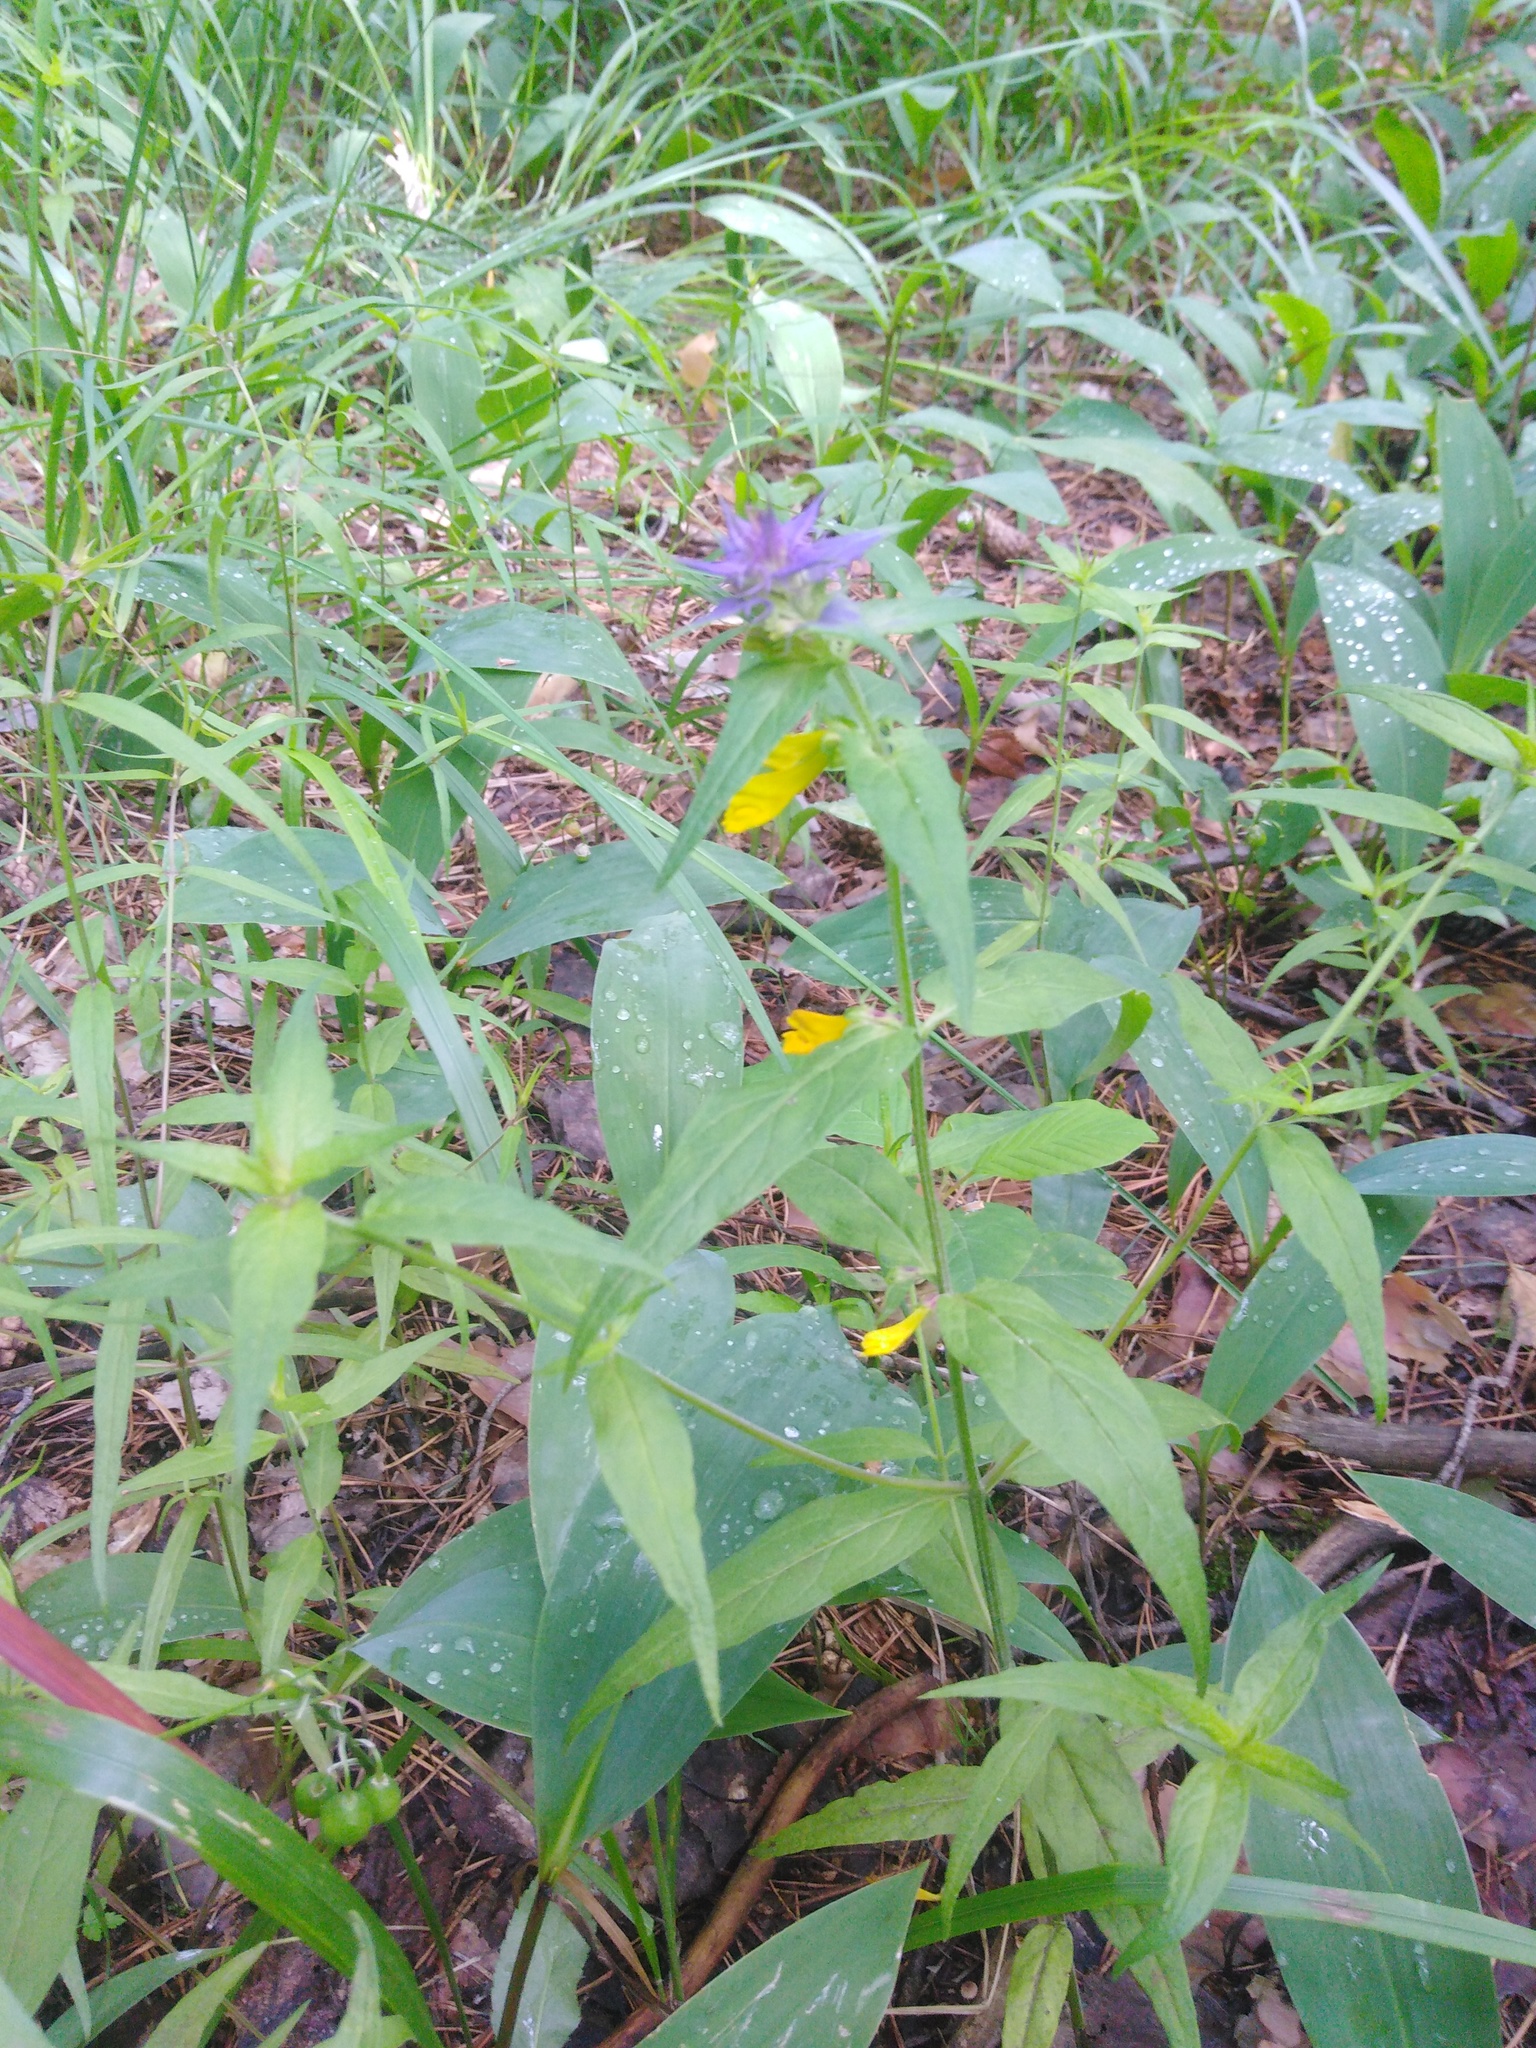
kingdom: Plantae
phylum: Tracheophyta
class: Magnoliopsida
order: Lamiales
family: Orobanchaceae
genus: Melampyrum
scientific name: Melampyrum nemorosum
